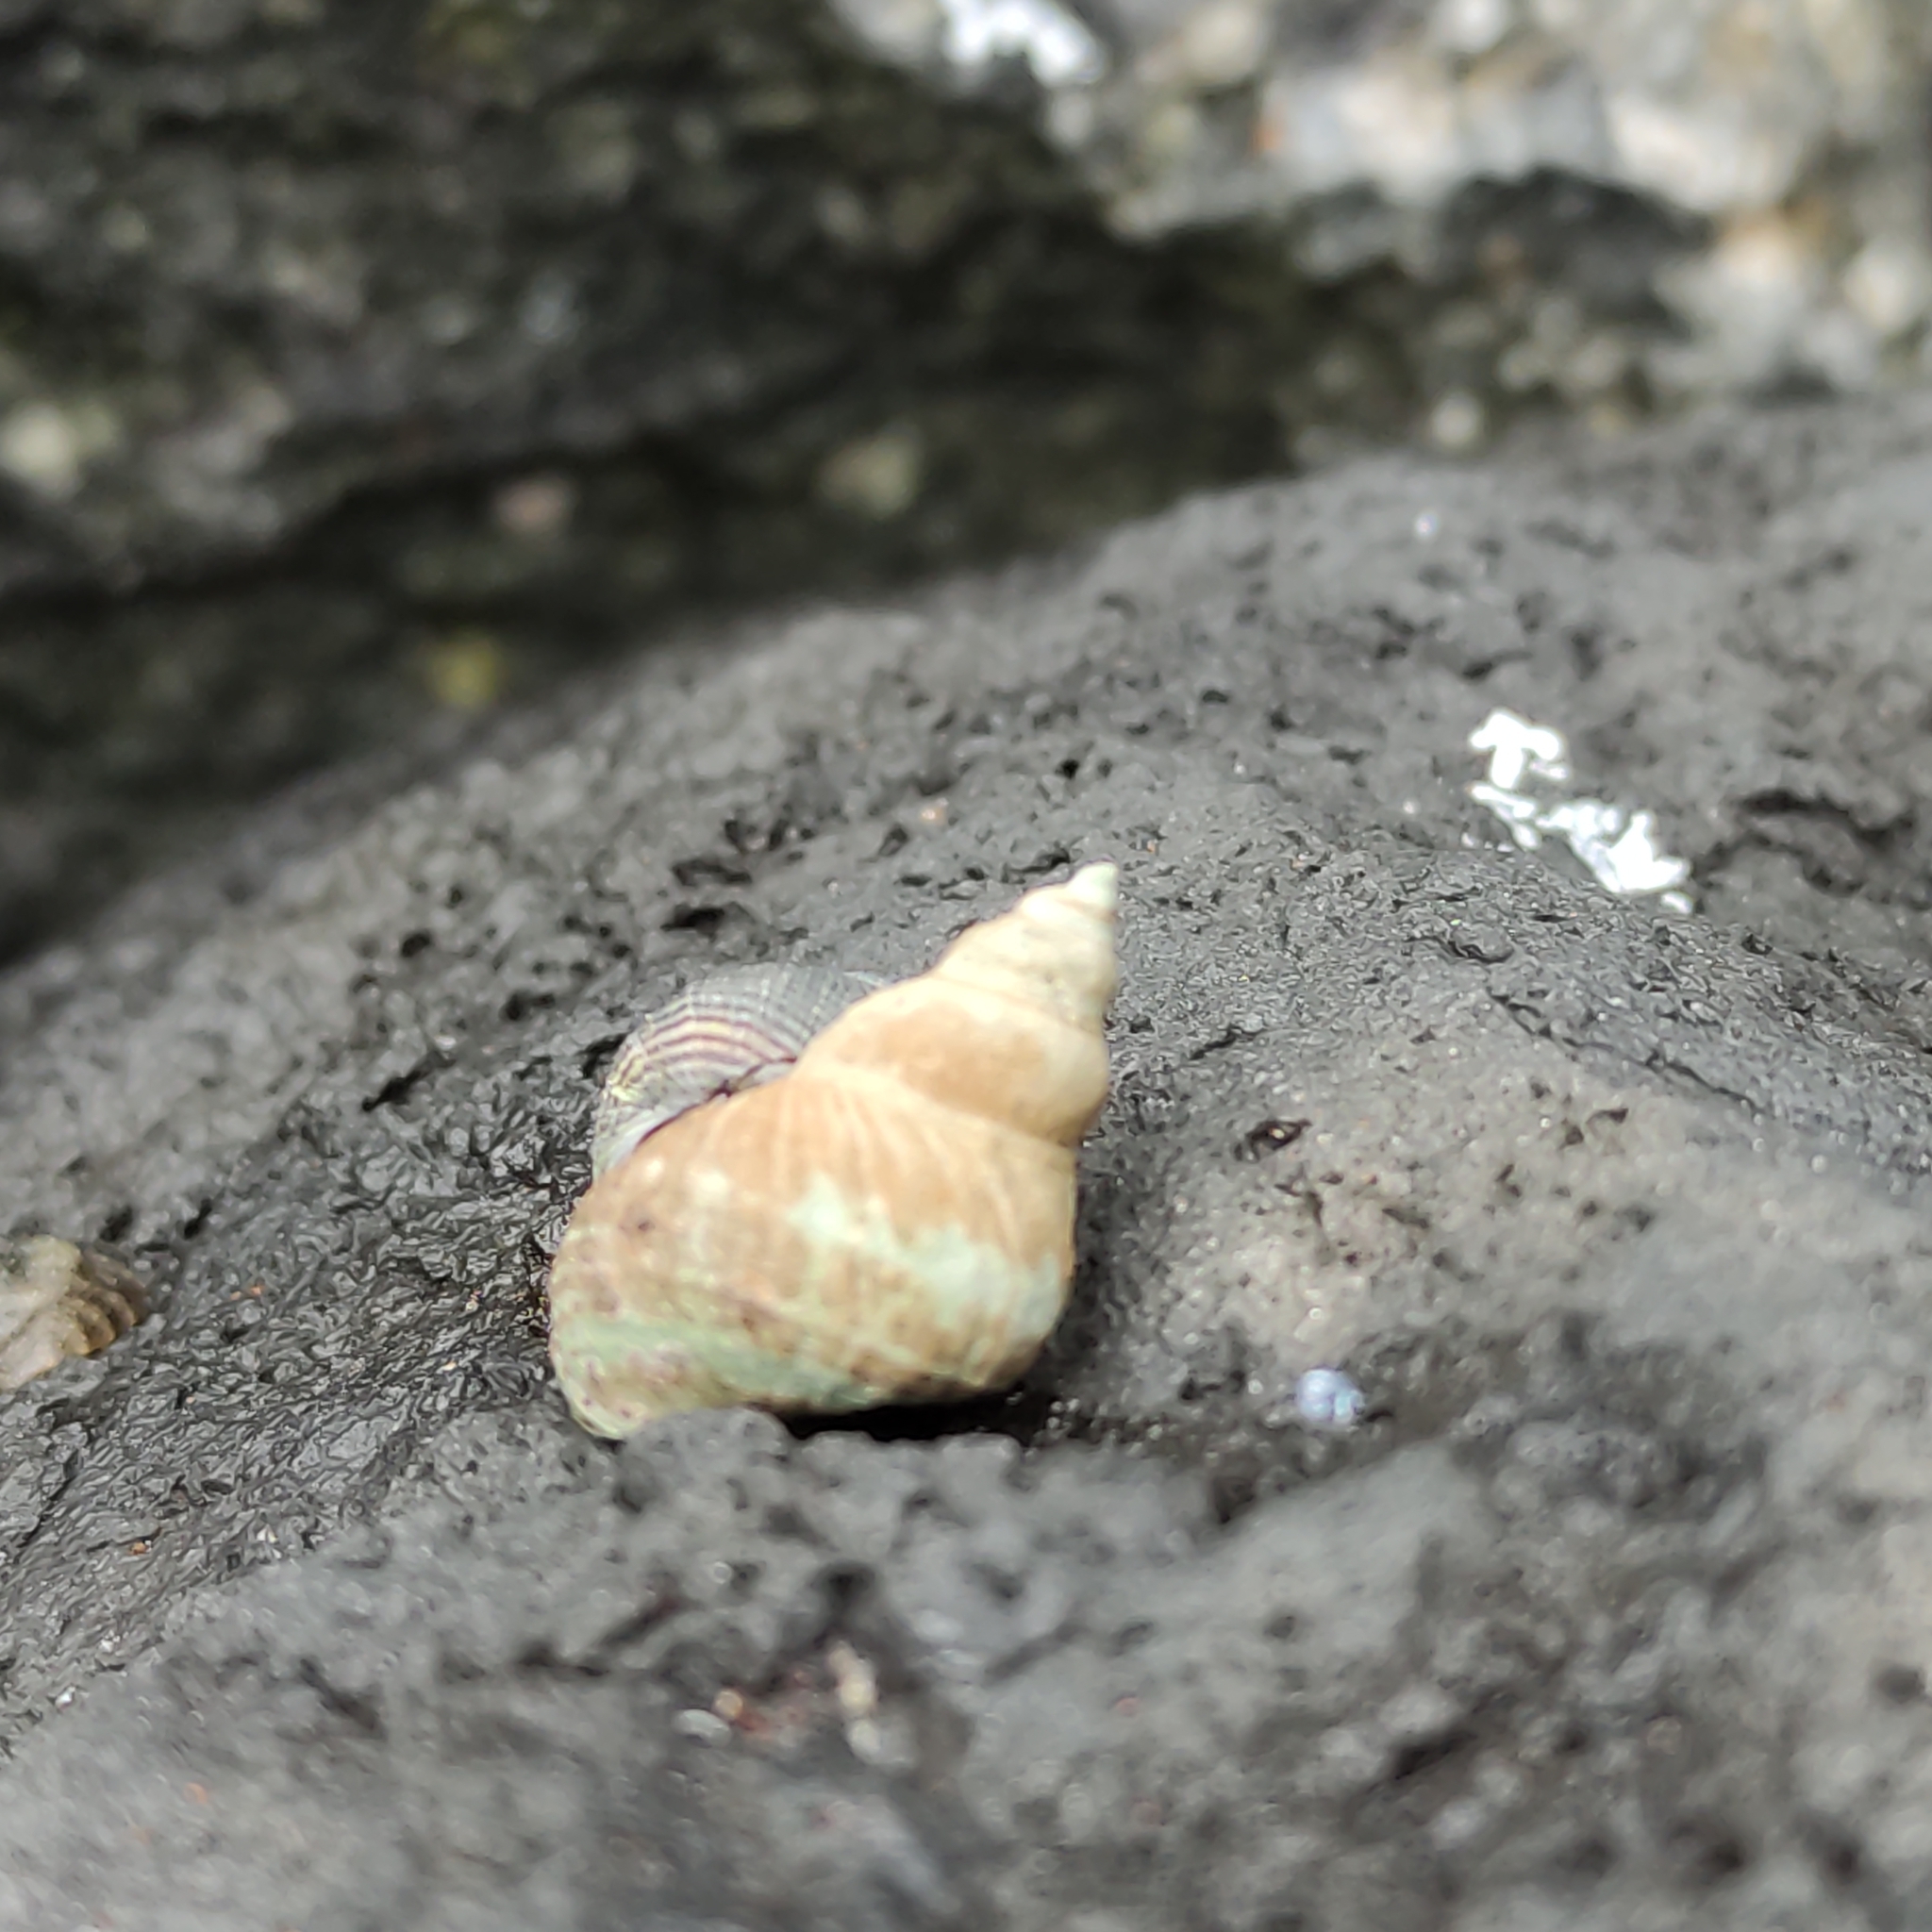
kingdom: Animalia
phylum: Mollusca
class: Gastropoda
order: Littorinimorpha
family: Littorinidae
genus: Austrolittorina
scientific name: Austrolittorina cincta
